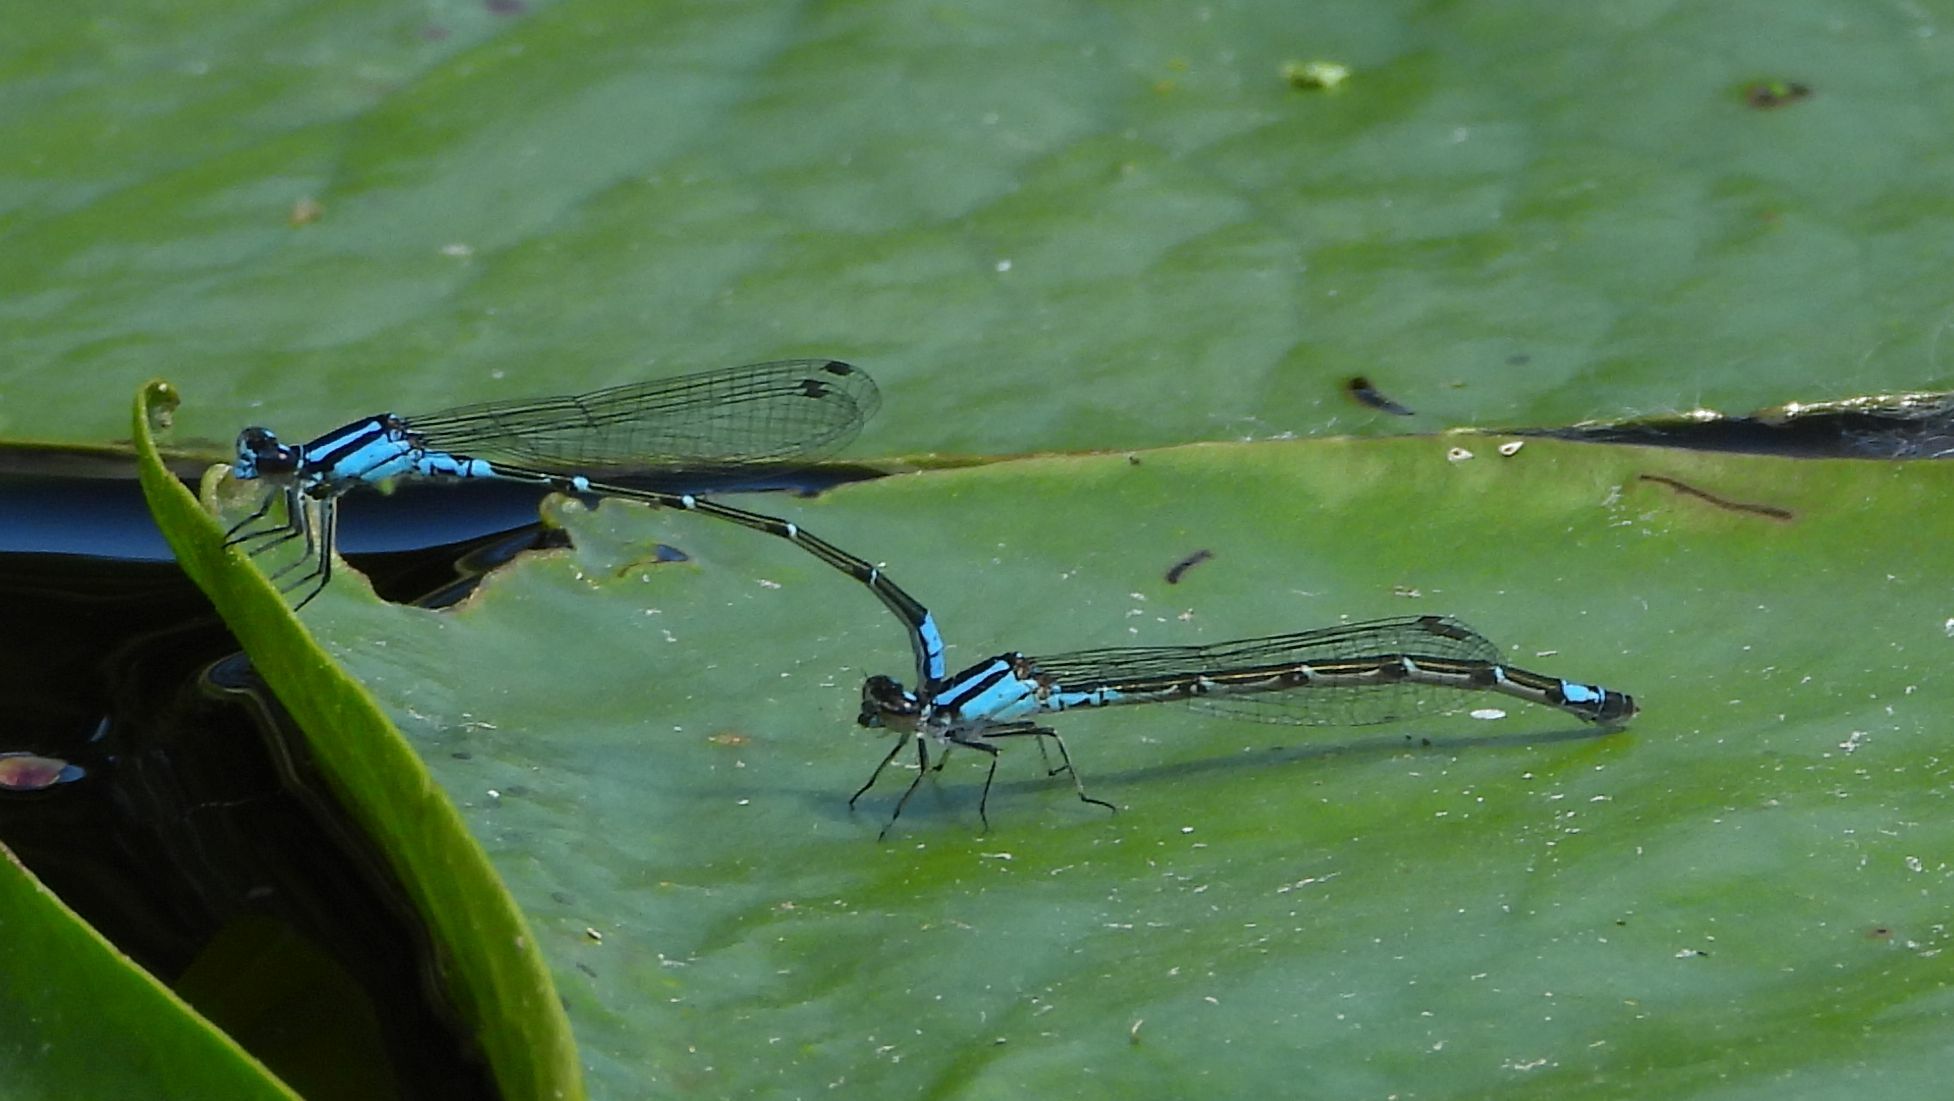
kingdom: Animalia
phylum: Arthropoda
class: Insecta
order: Odonata
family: Coenagrionidae
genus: Enallagma
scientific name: Enallagma geminatum
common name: Skimming bluet
